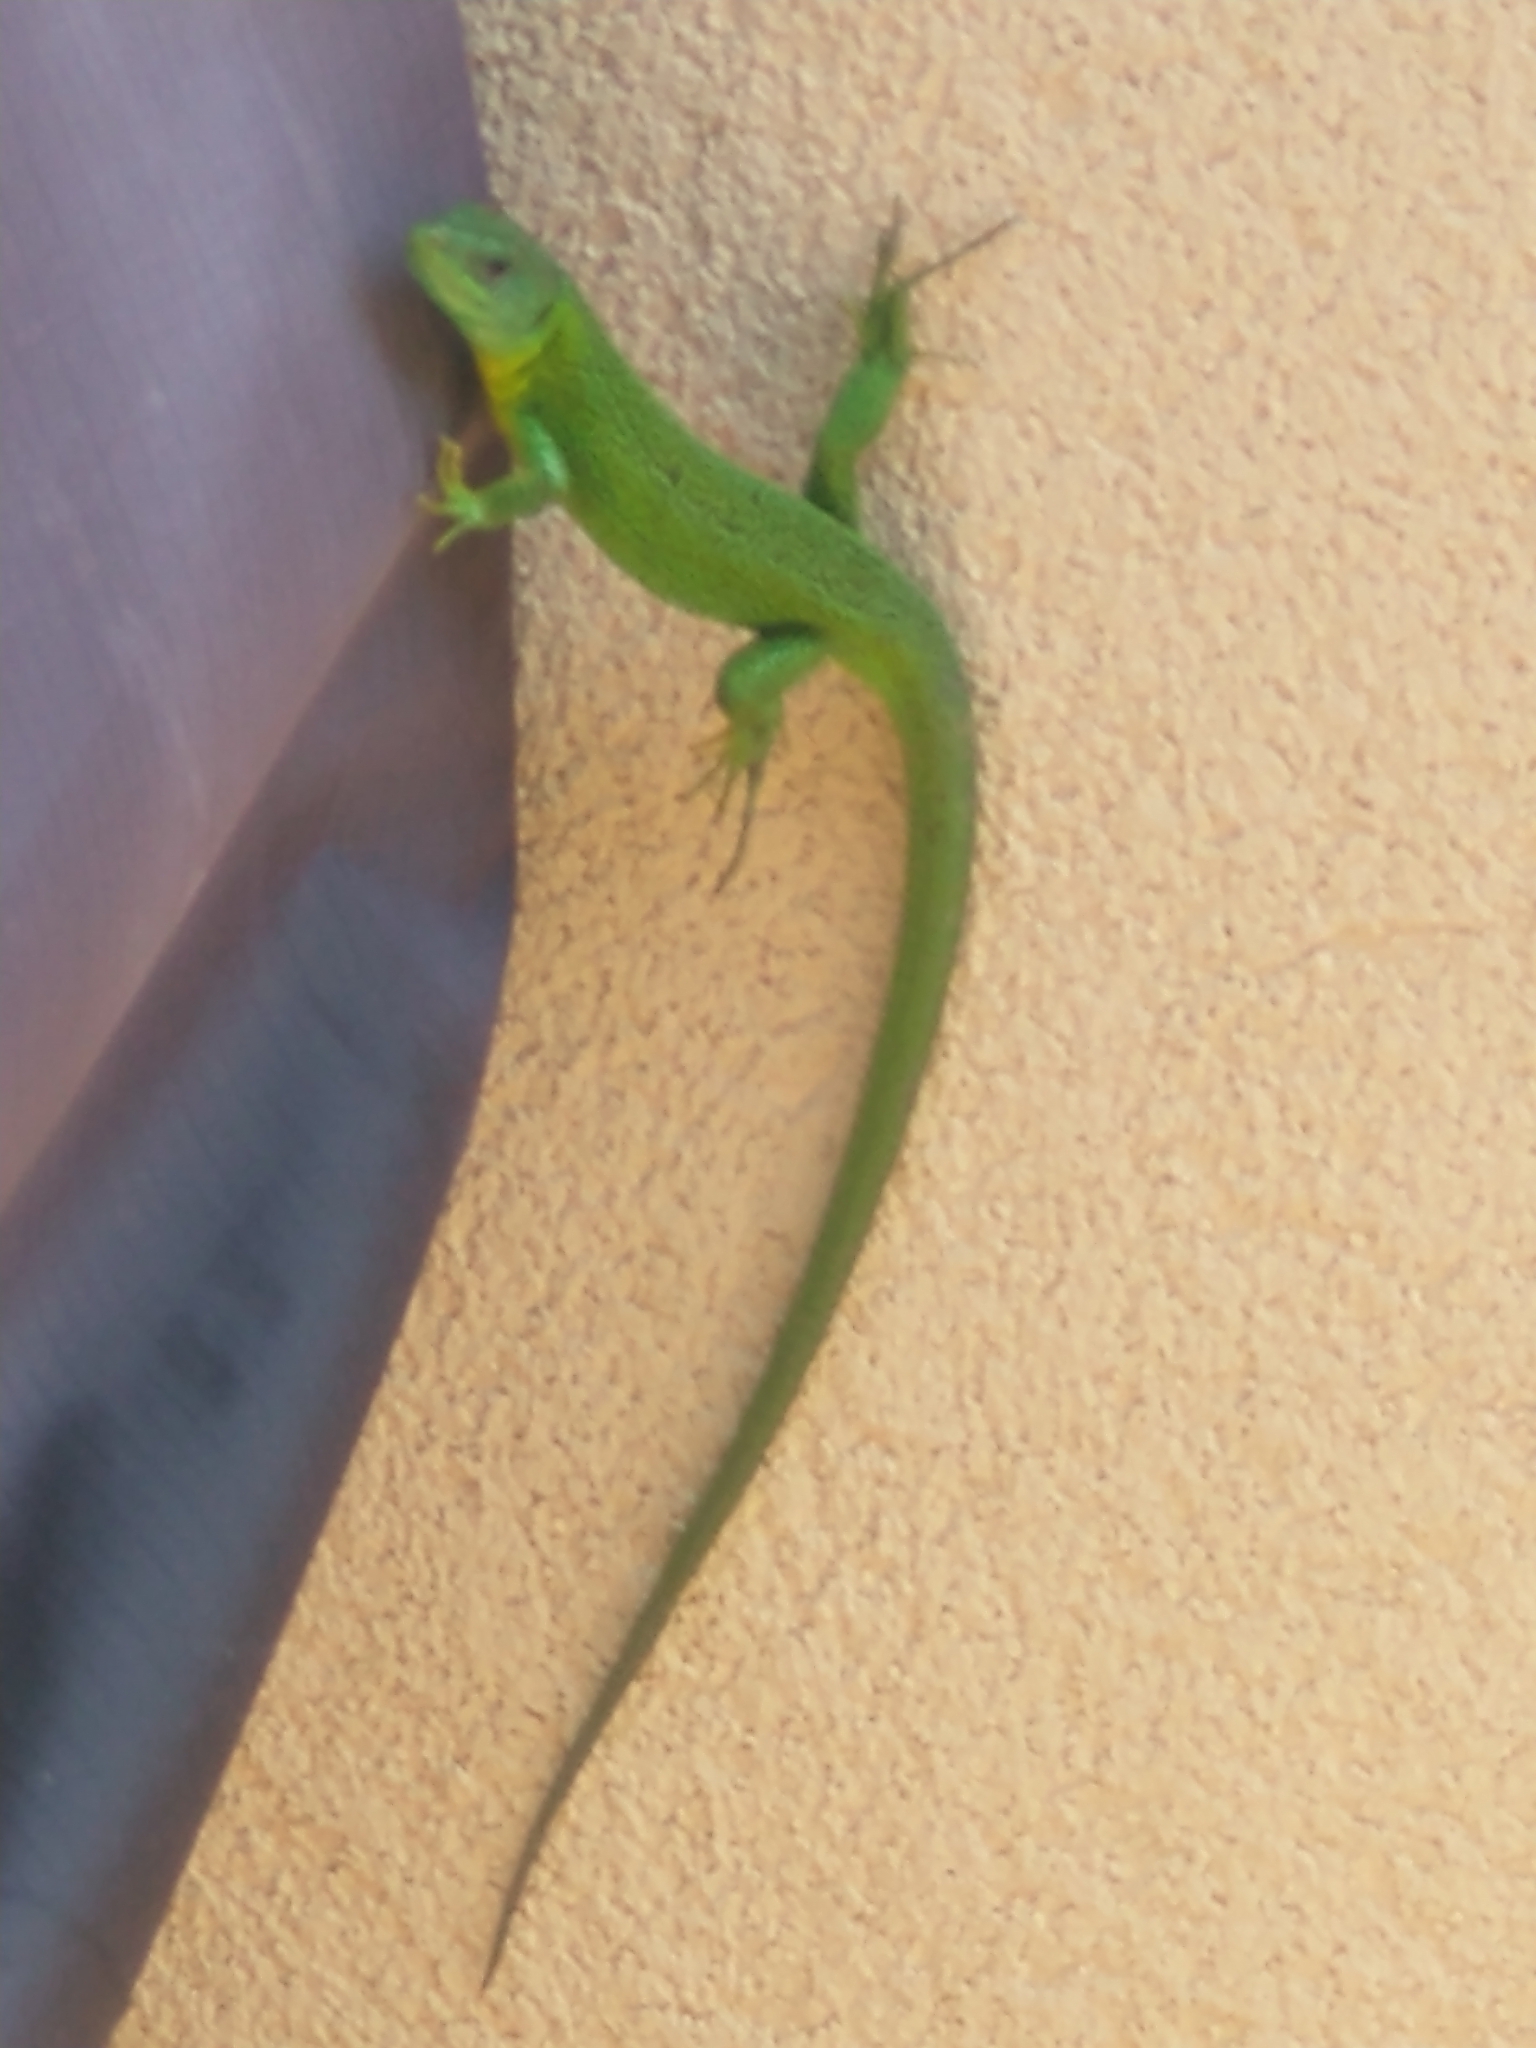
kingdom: Animalia
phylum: Chordata
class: Squamata
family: Lacertidae
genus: Lacerta
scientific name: Lacerta bilineata
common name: Western green lizard
